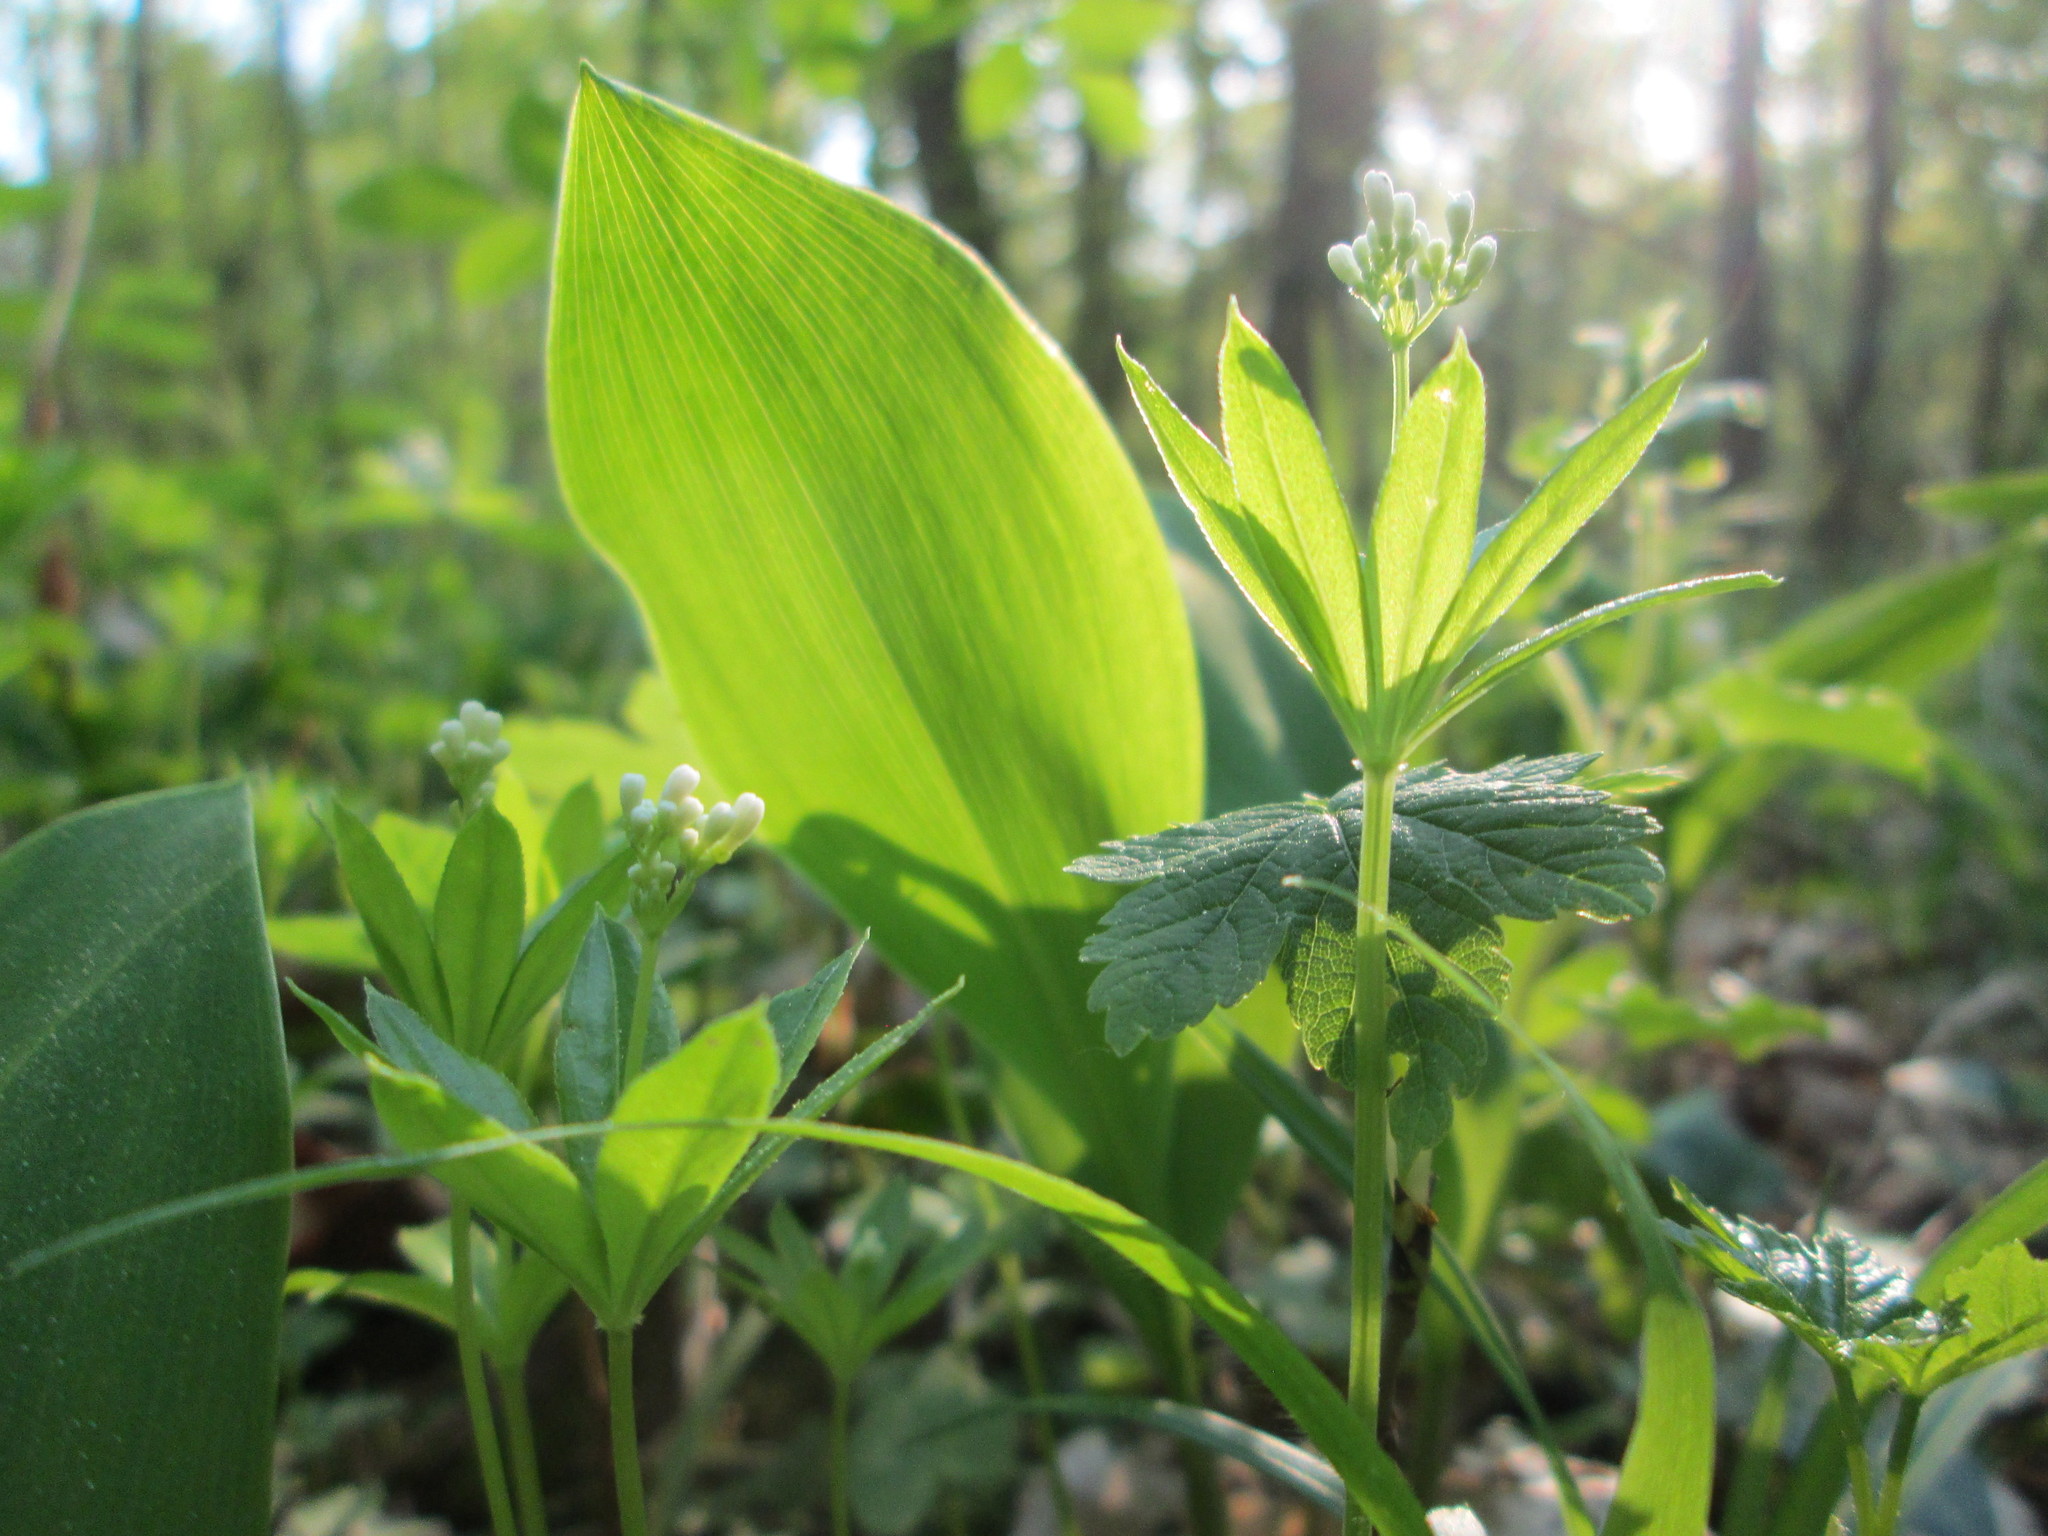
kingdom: Plantae
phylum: Tracheophyta
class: Magnoliopsida
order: Gentianales
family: Rubiaceae
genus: Galium
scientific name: Galium odoratum
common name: Sweet woodruff
